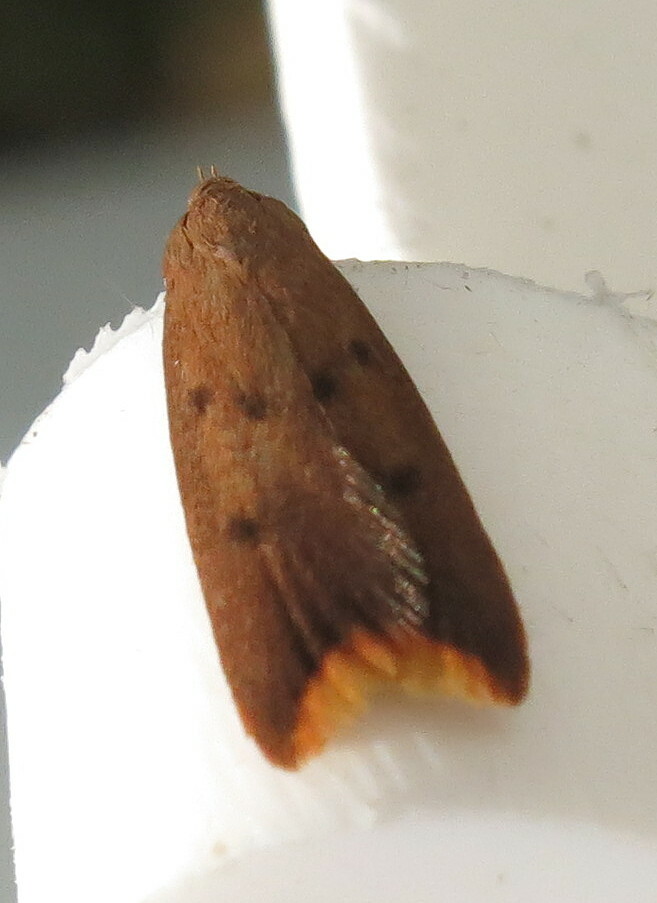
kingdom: Animalia
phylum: Arthropoda
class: Insecta
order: Lepidoptera
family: Oecophoridae
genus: Tachystola
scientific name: Tachystola acroxantha
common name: Ruddy streak
